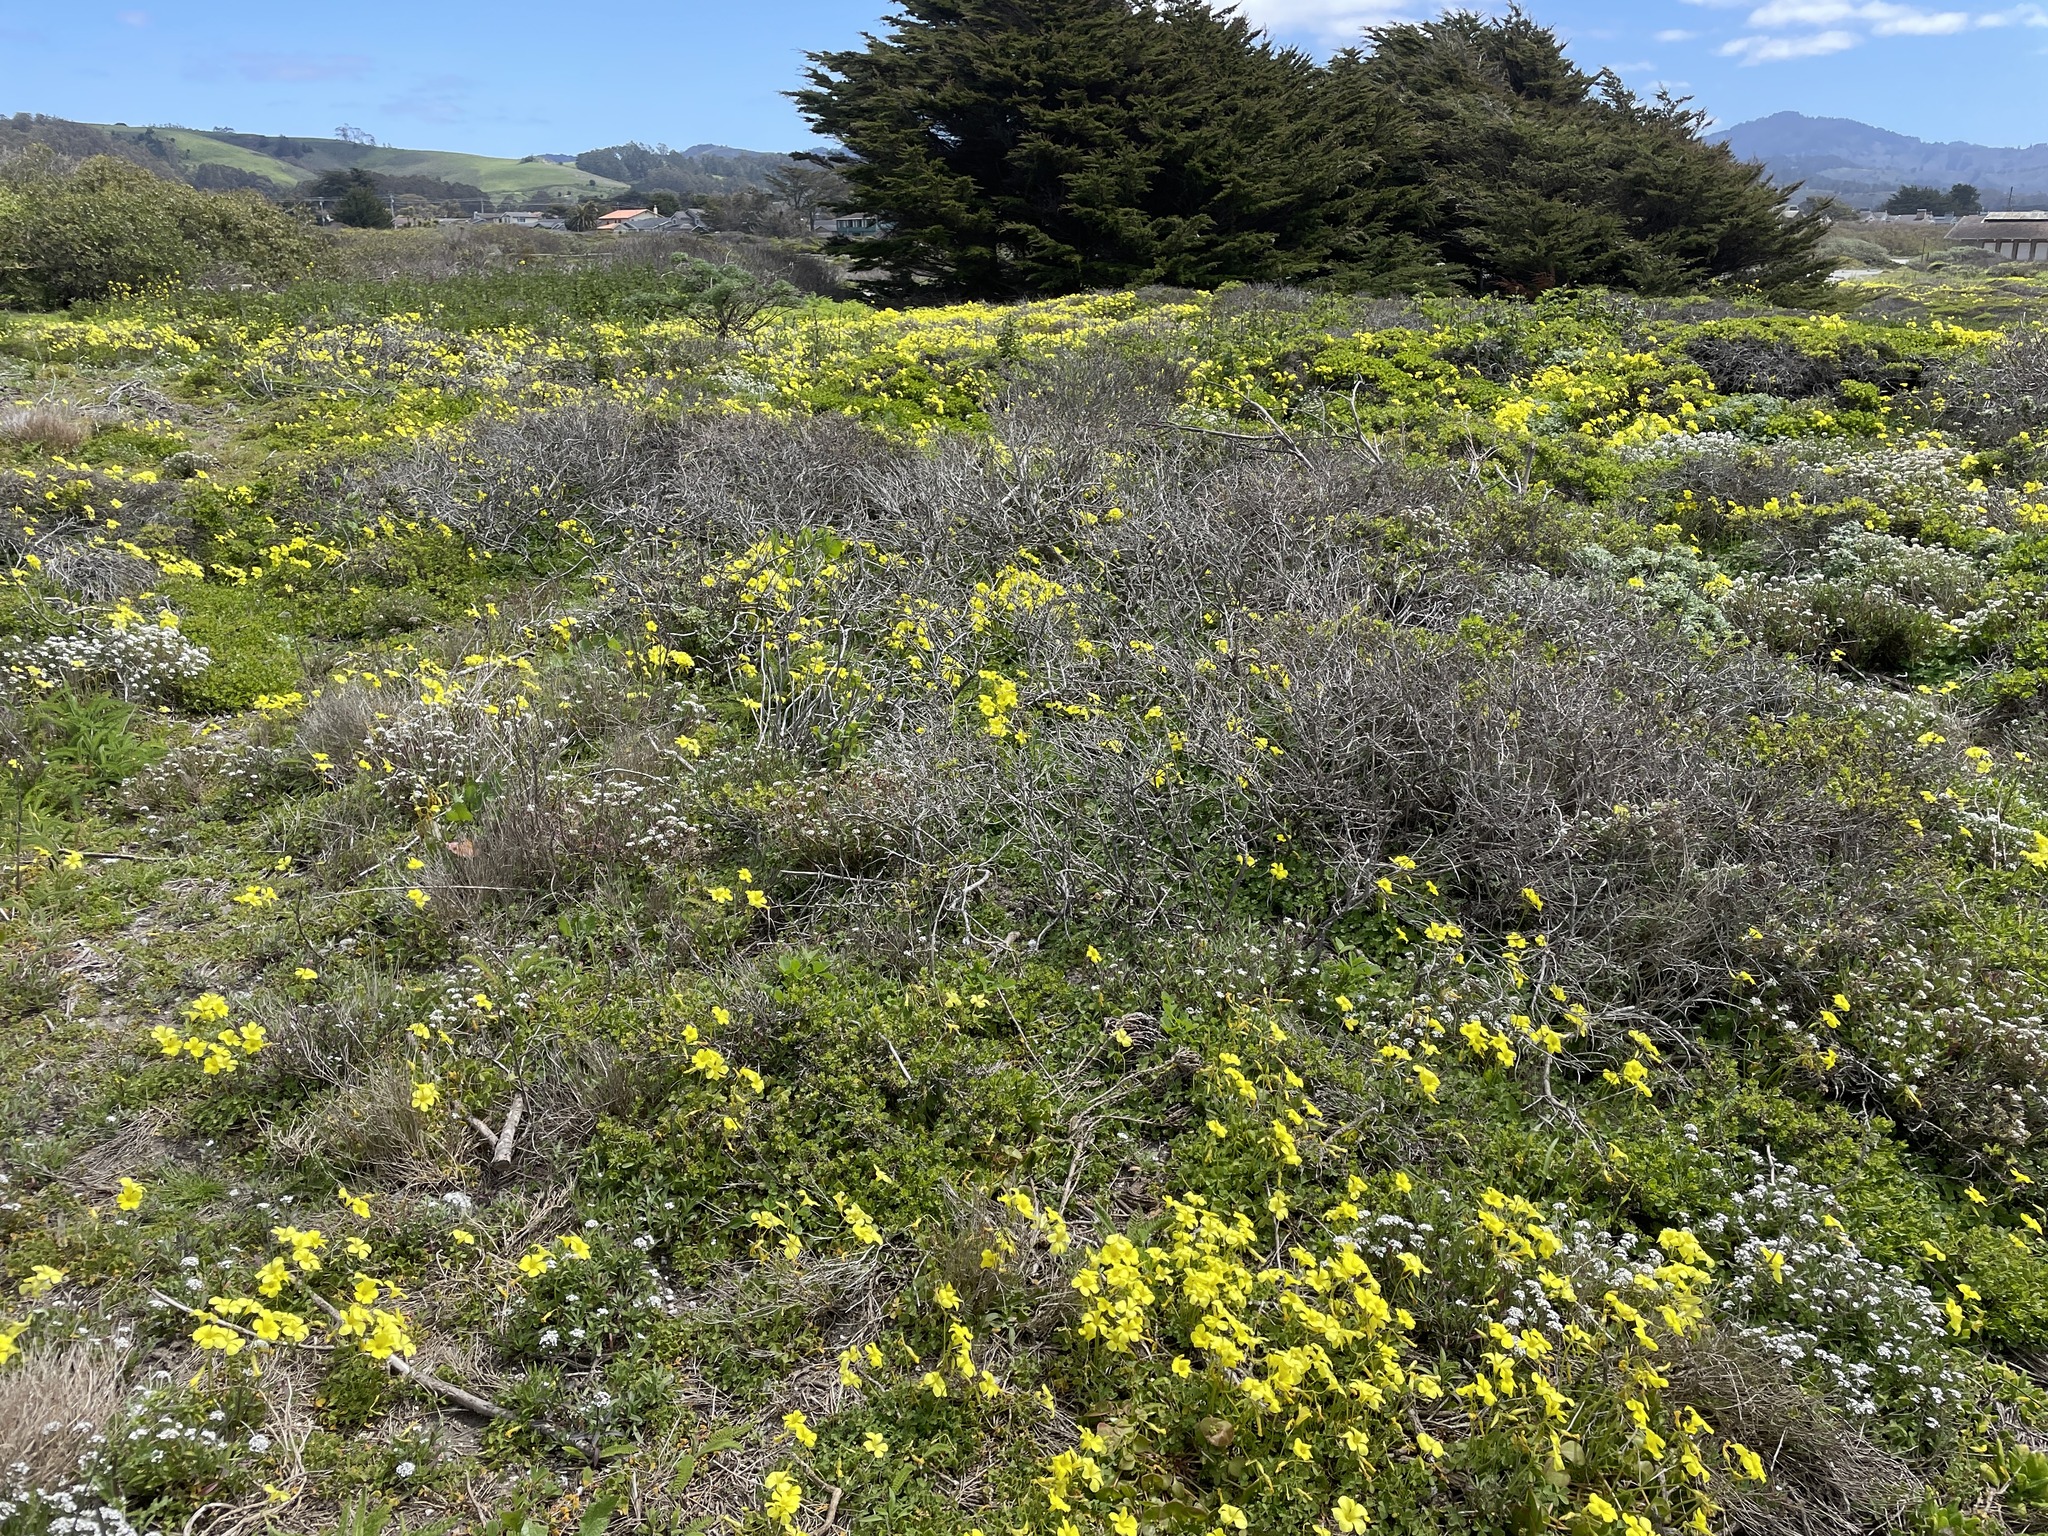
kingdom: Plantae
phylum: Tracheophyta
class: Magnoliopsida
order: Oxalidales
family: Oxalidaceae
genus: Oxalis
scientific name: Oxalis pes-caprae
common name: Bermuda-buttercup
